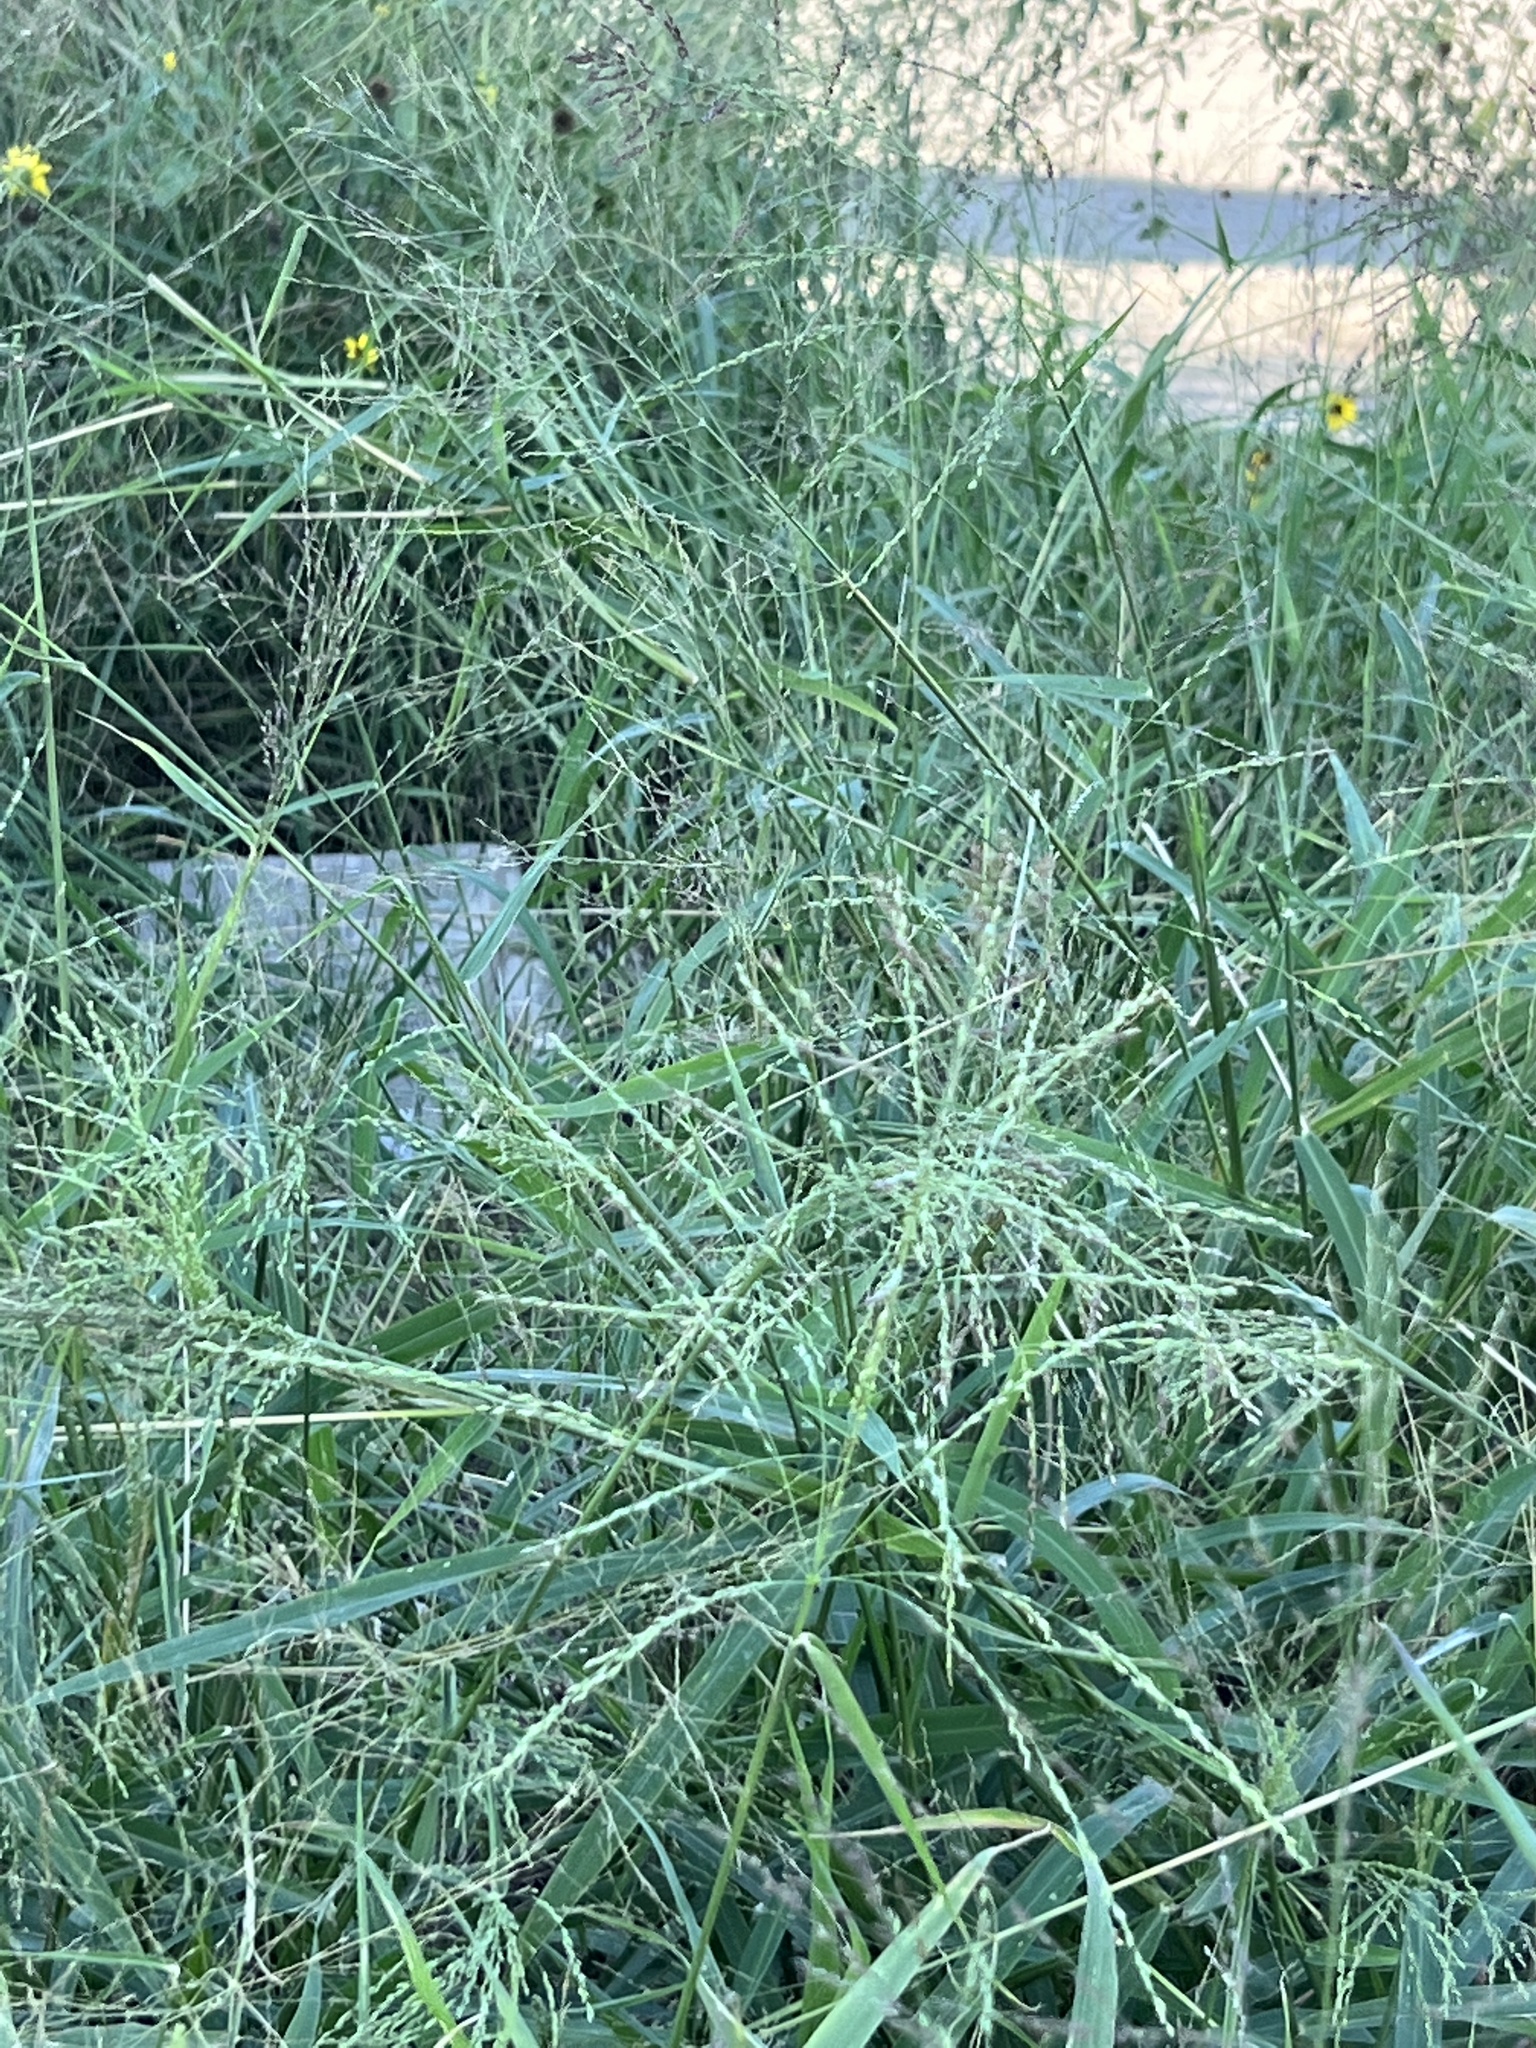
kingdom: Plantae
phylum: Tracheophyta
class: Liliopsida
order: Poales
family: Poaceae
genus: Megathyrsus
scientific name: Megathyrsus maximus
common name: Guineagrass
